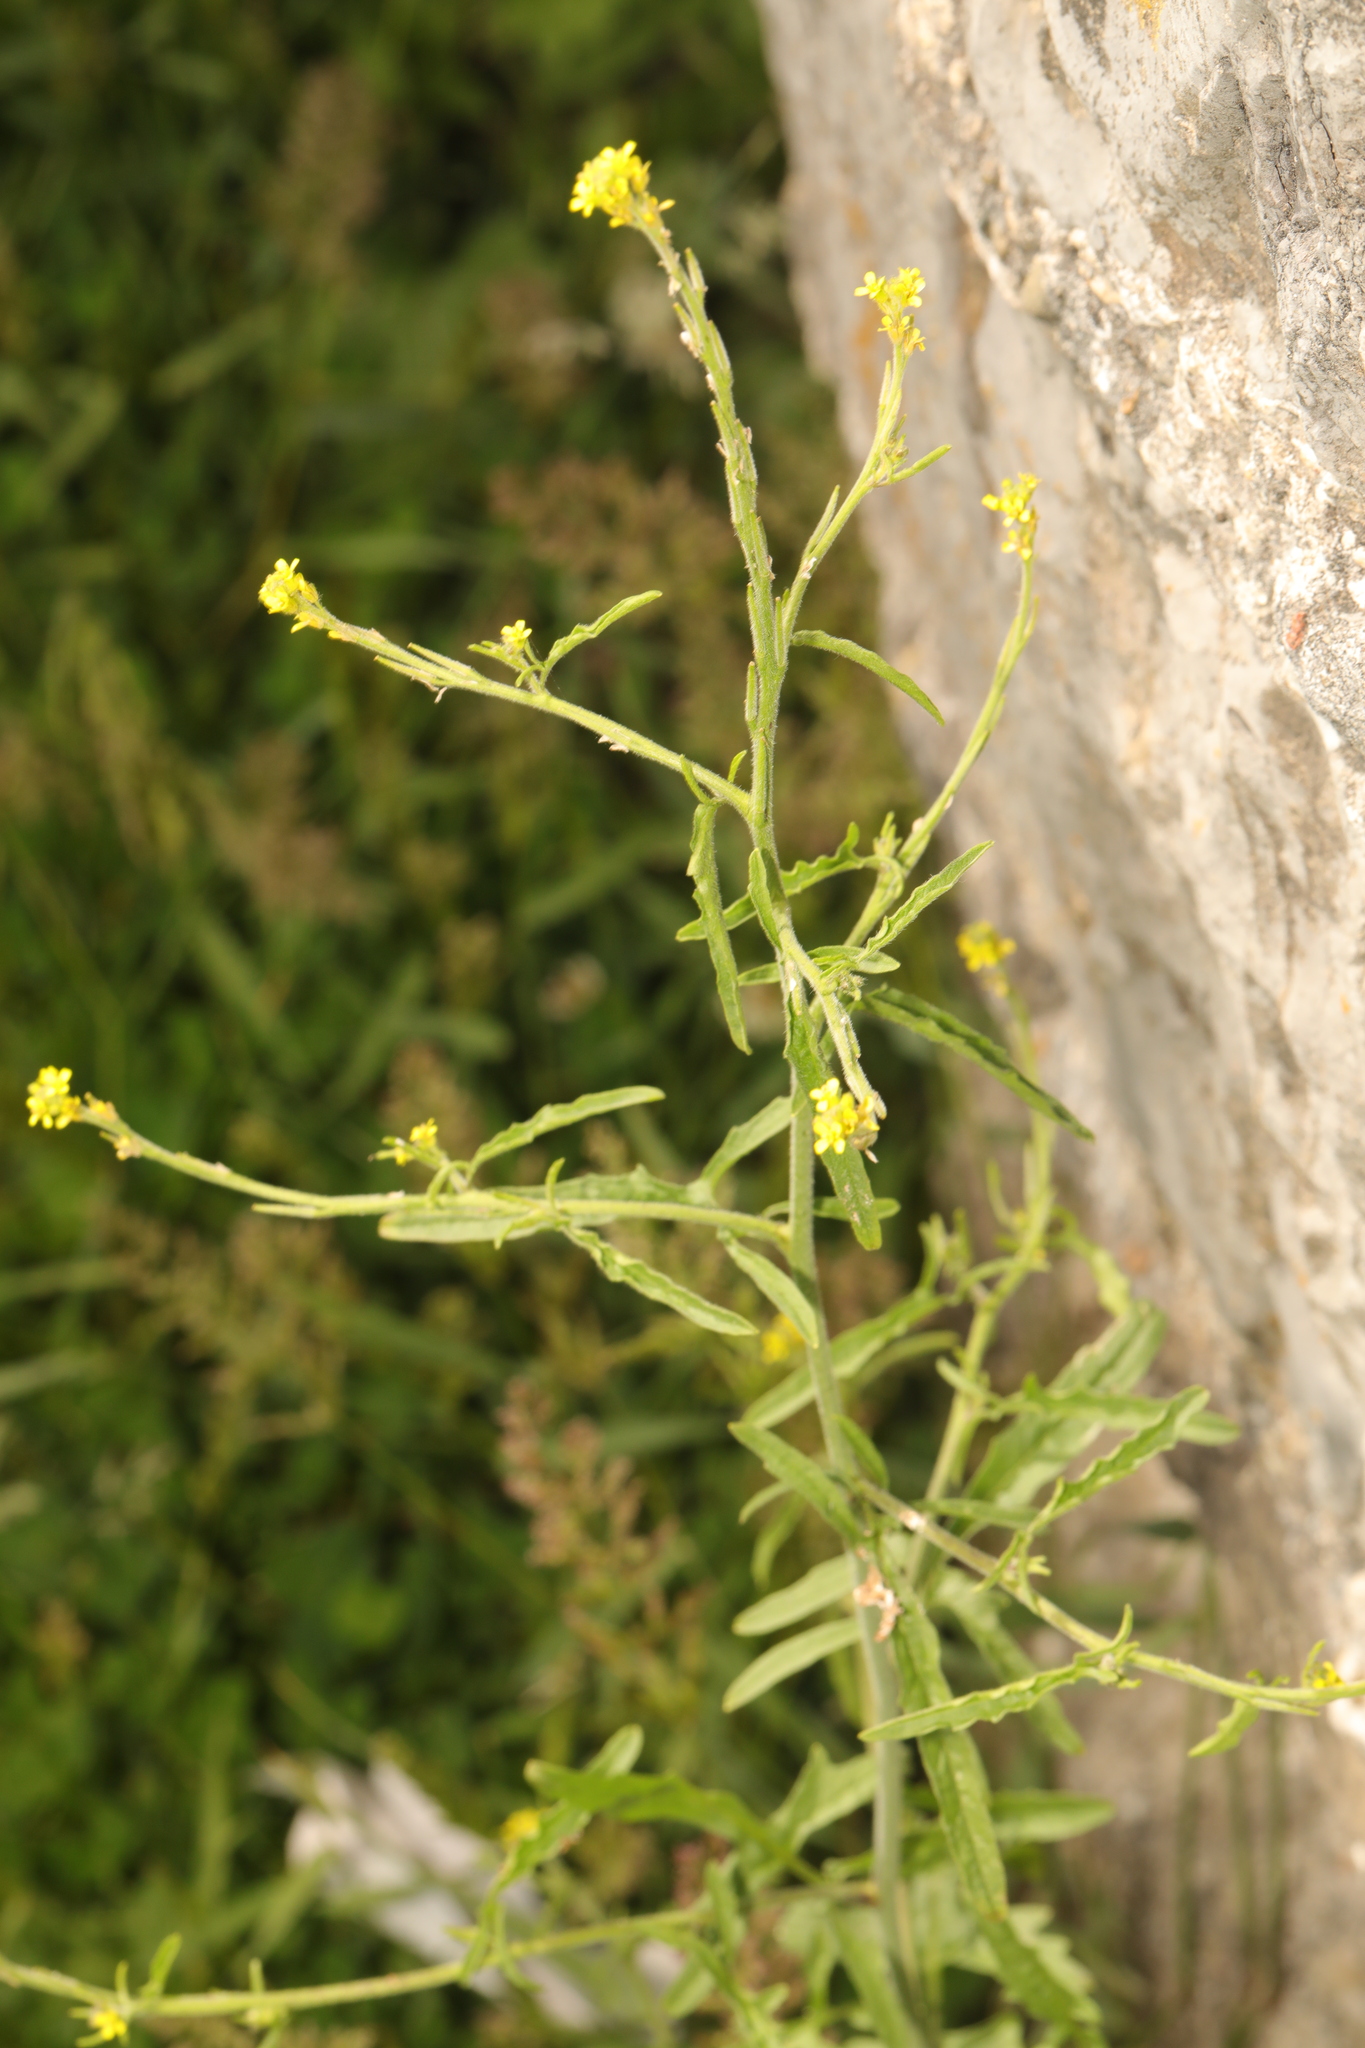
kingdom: Plantae
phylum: Tracheophyta
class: Magnoliopsida
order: Brassicales
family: Brassicaceae
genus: Sisymbrium
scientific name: Sisymbrium officinale
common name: Hedge mustard
